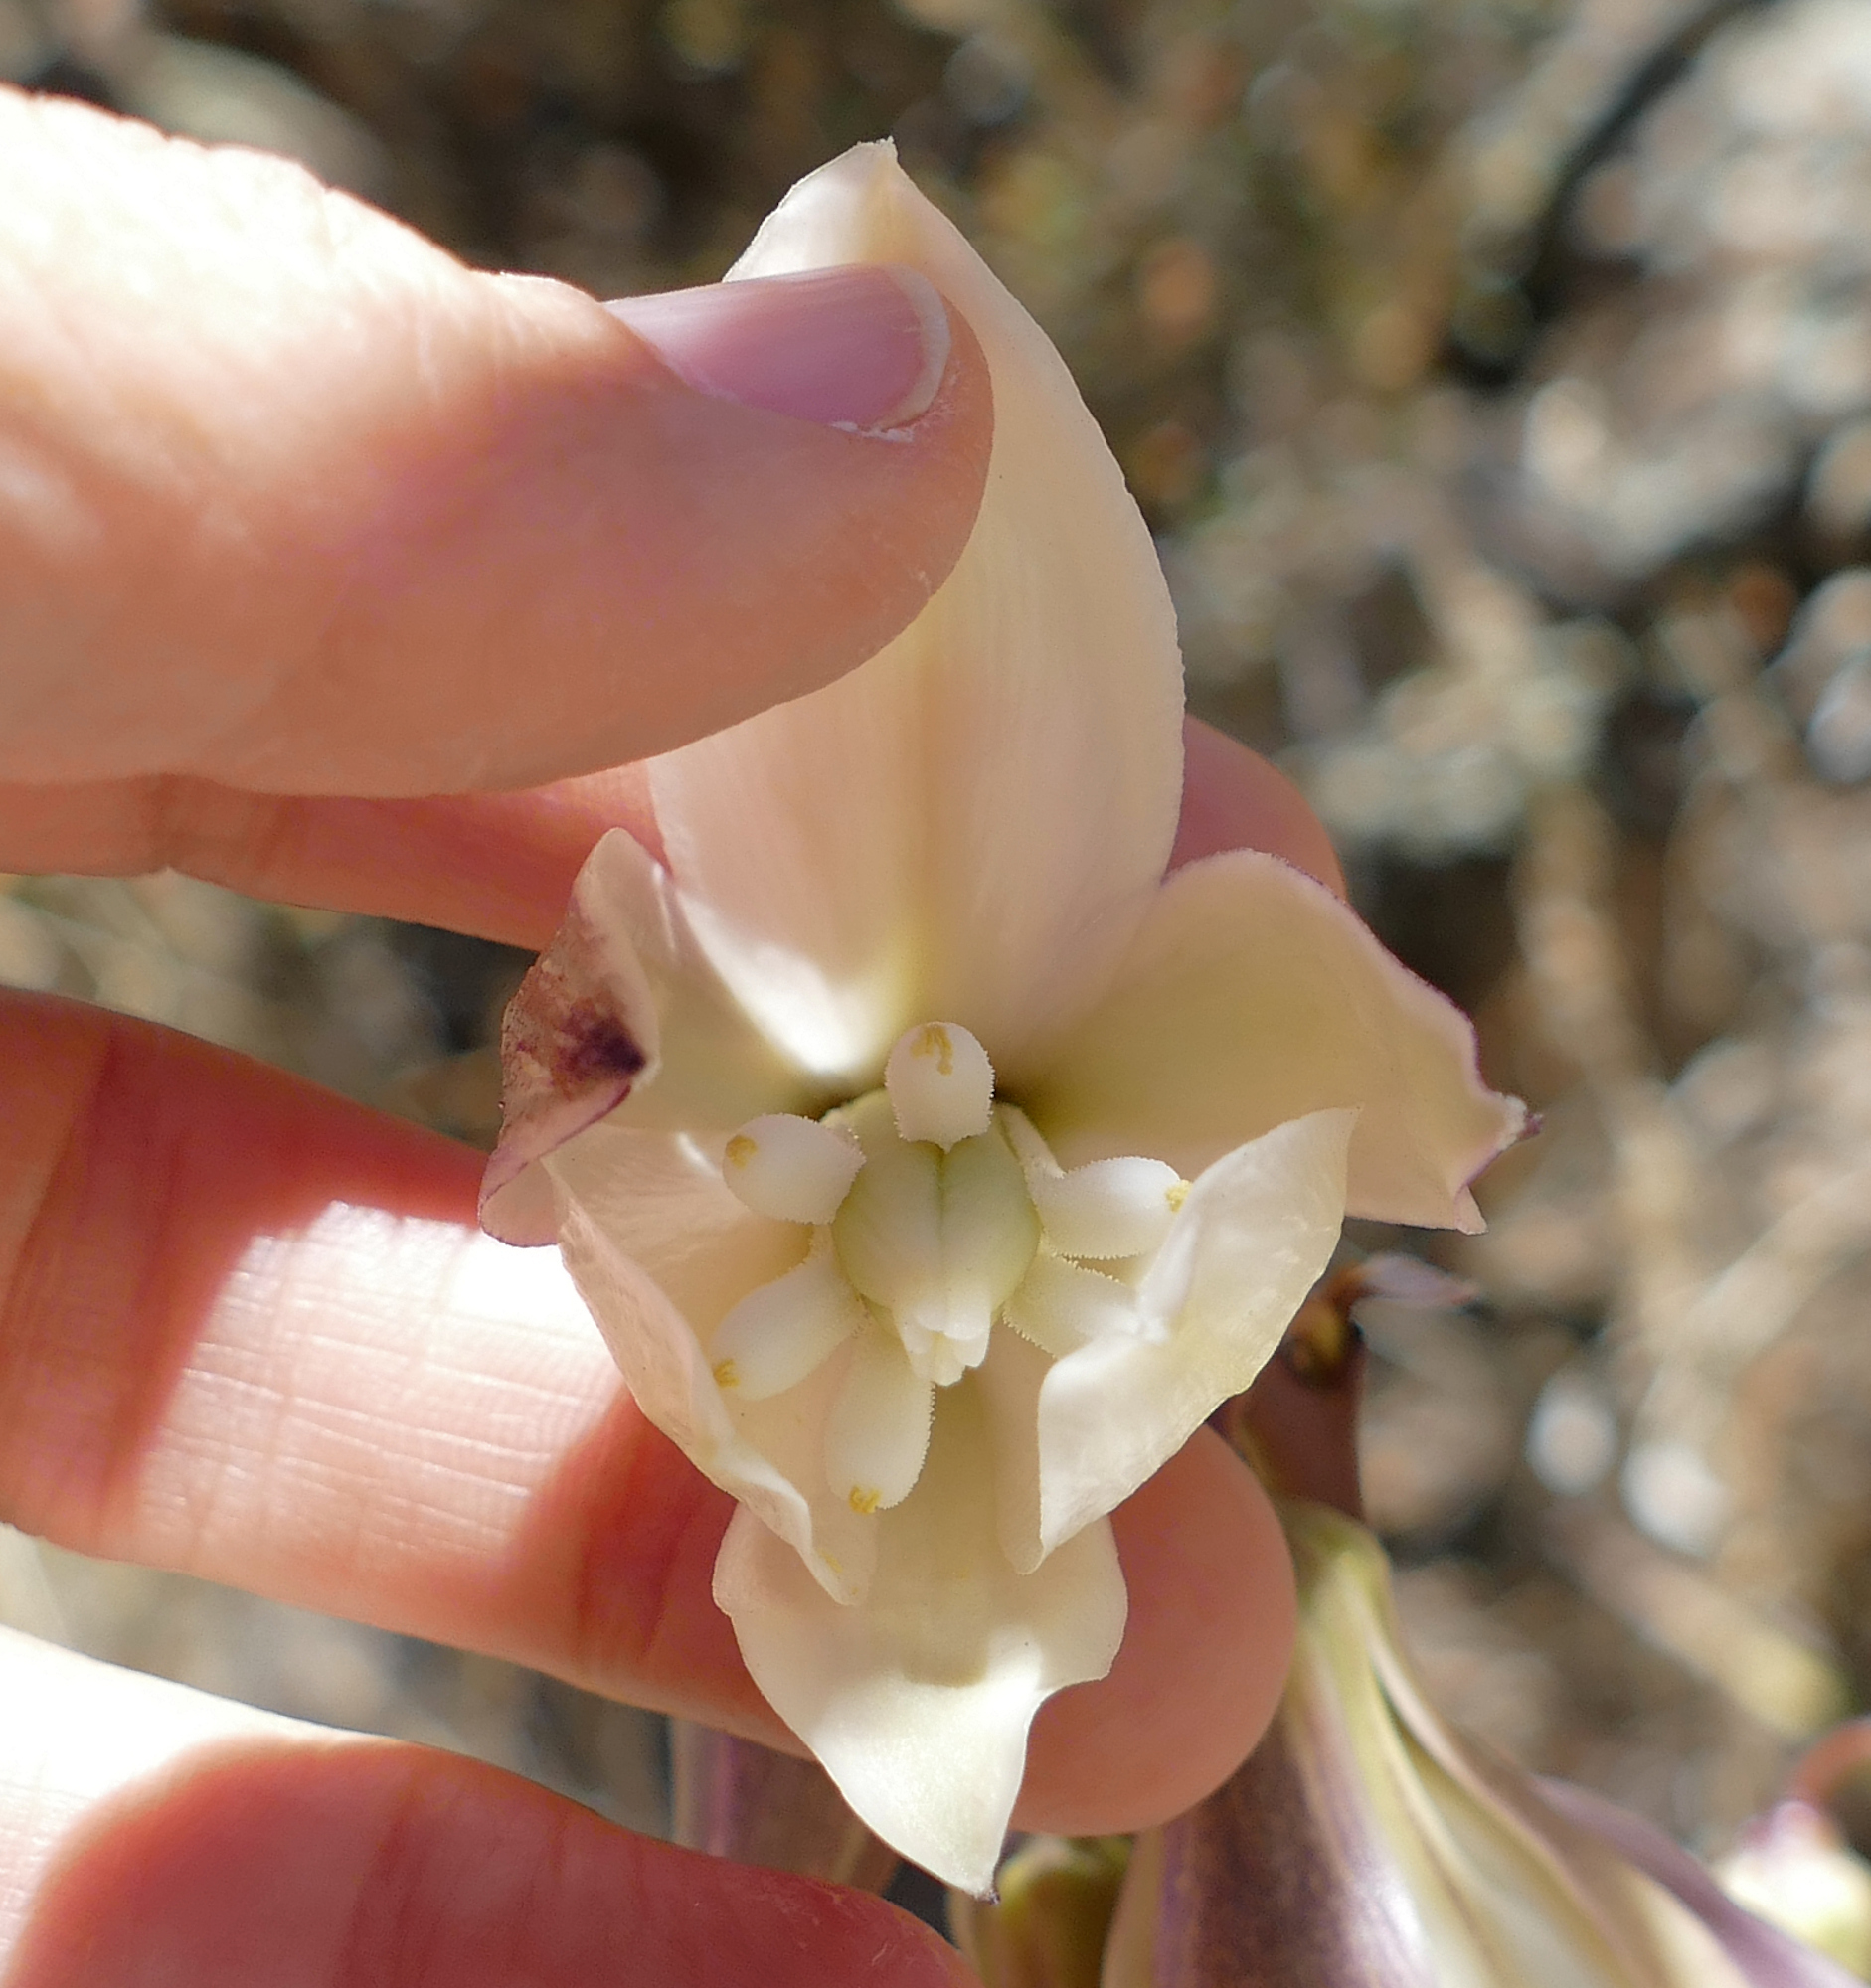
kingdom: Plantae
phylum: Tracheophyta
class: Liliopsida
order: Asparagales
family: Asparagaceae
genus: Yucca
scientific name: Yucca baccata
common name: Banana yucca
